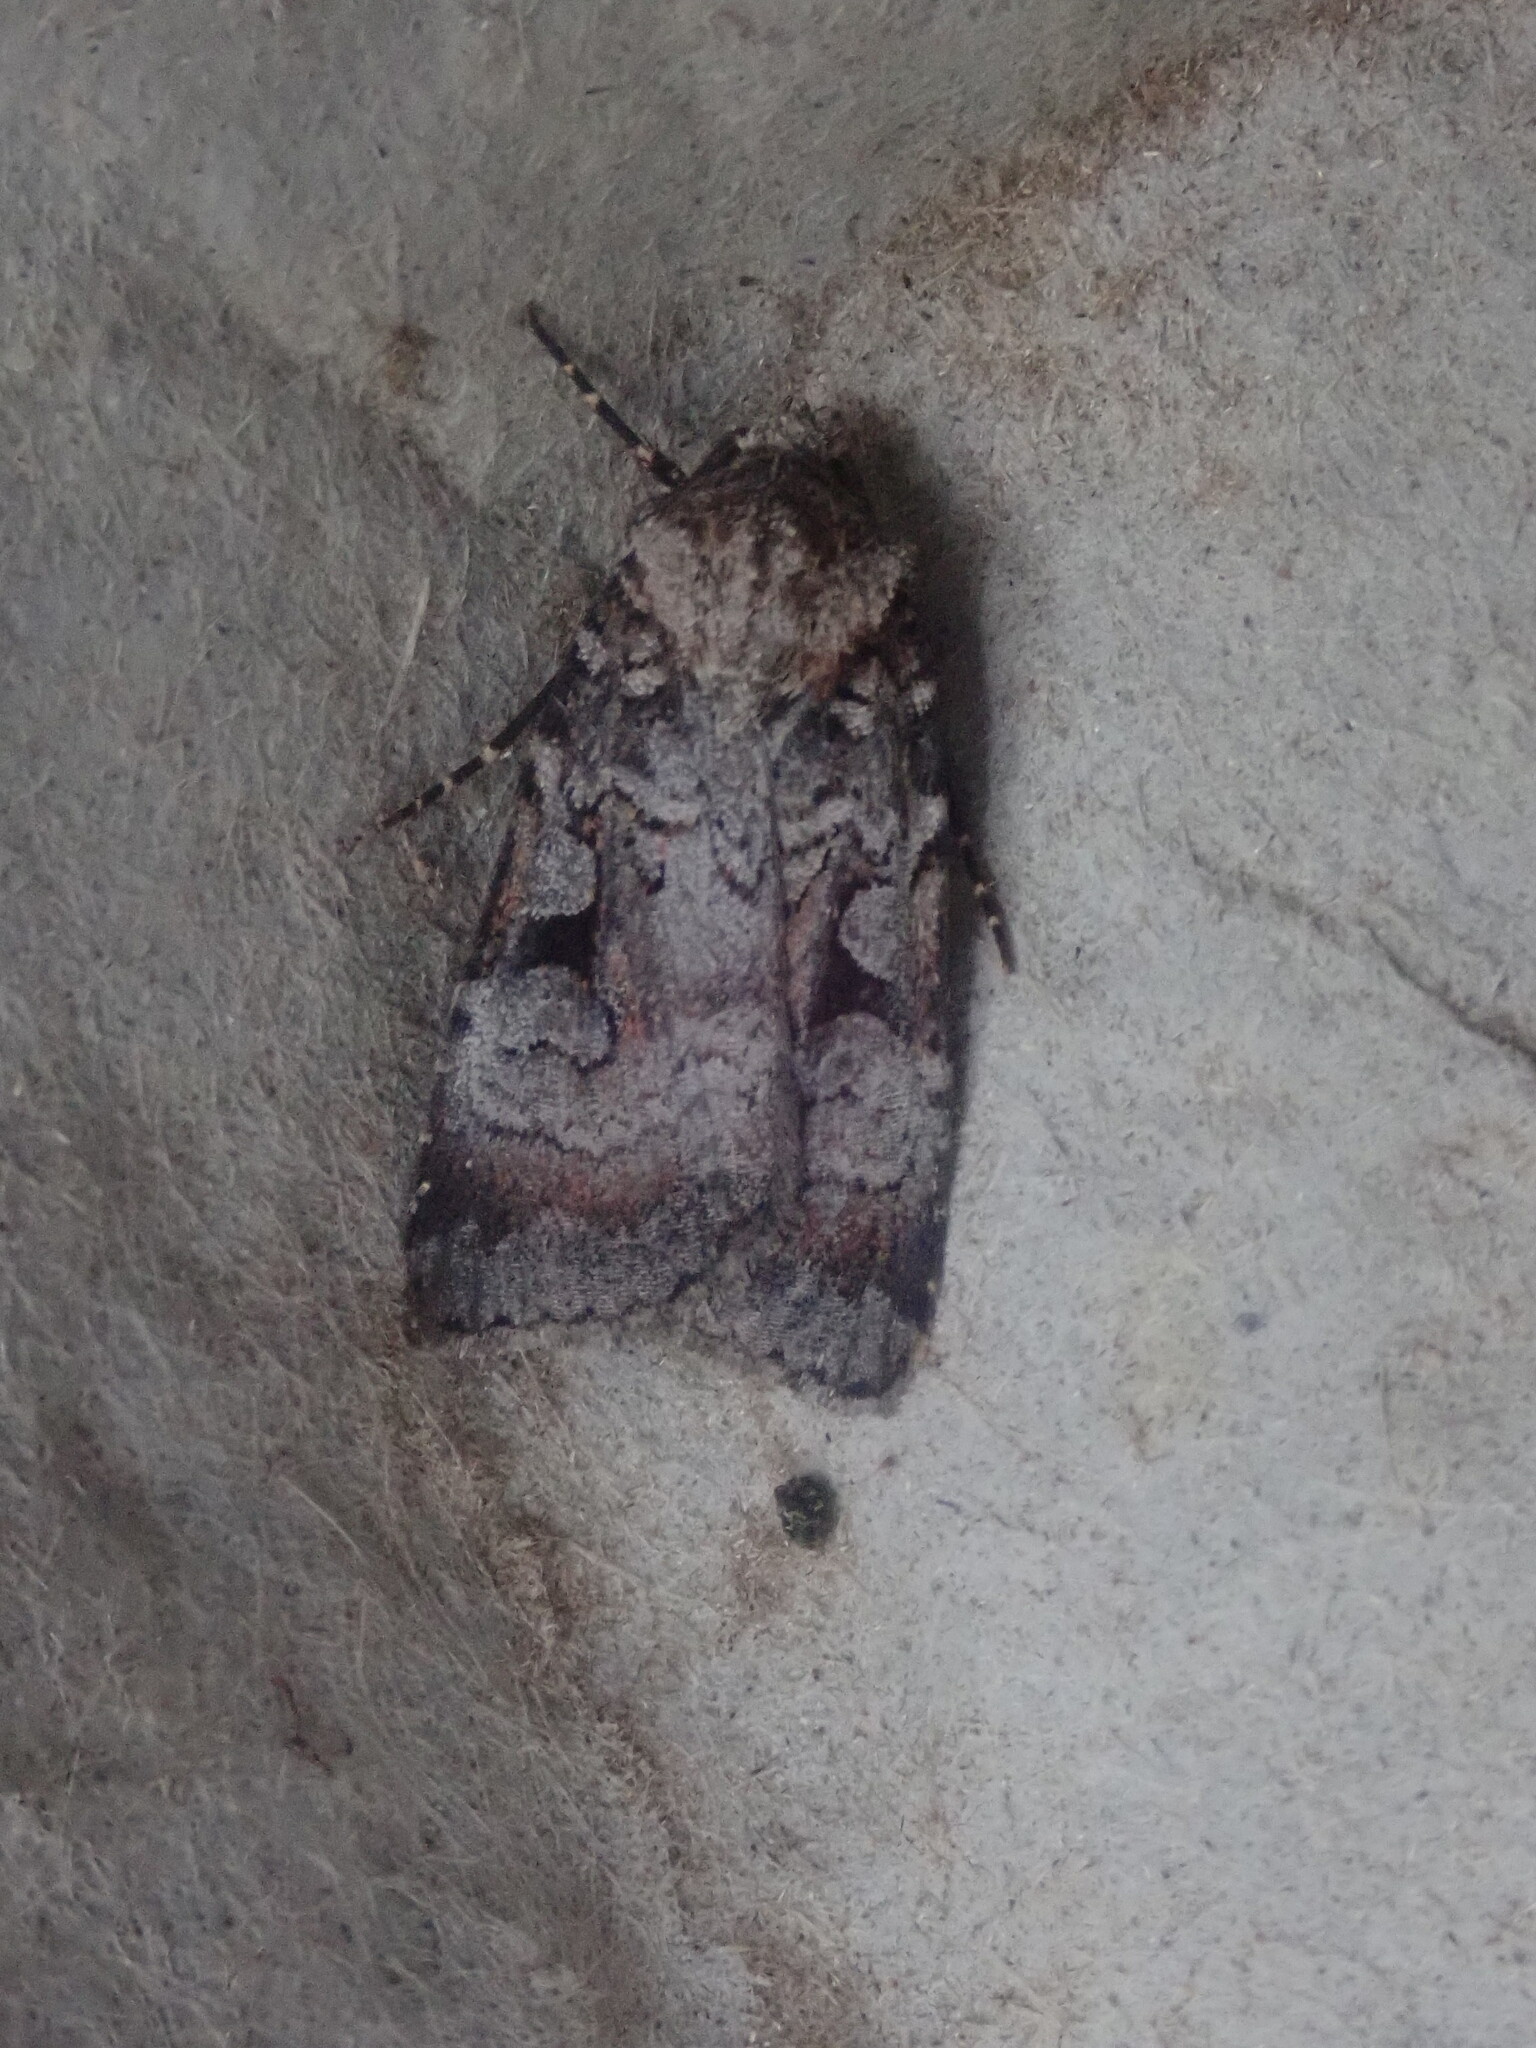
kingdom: Animalia
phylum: Arthropoda
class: Insecta
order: Lepidoptera
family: Noctuidae
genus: Feltia
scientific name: Feltia geniculata
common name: Knee-joint dart
